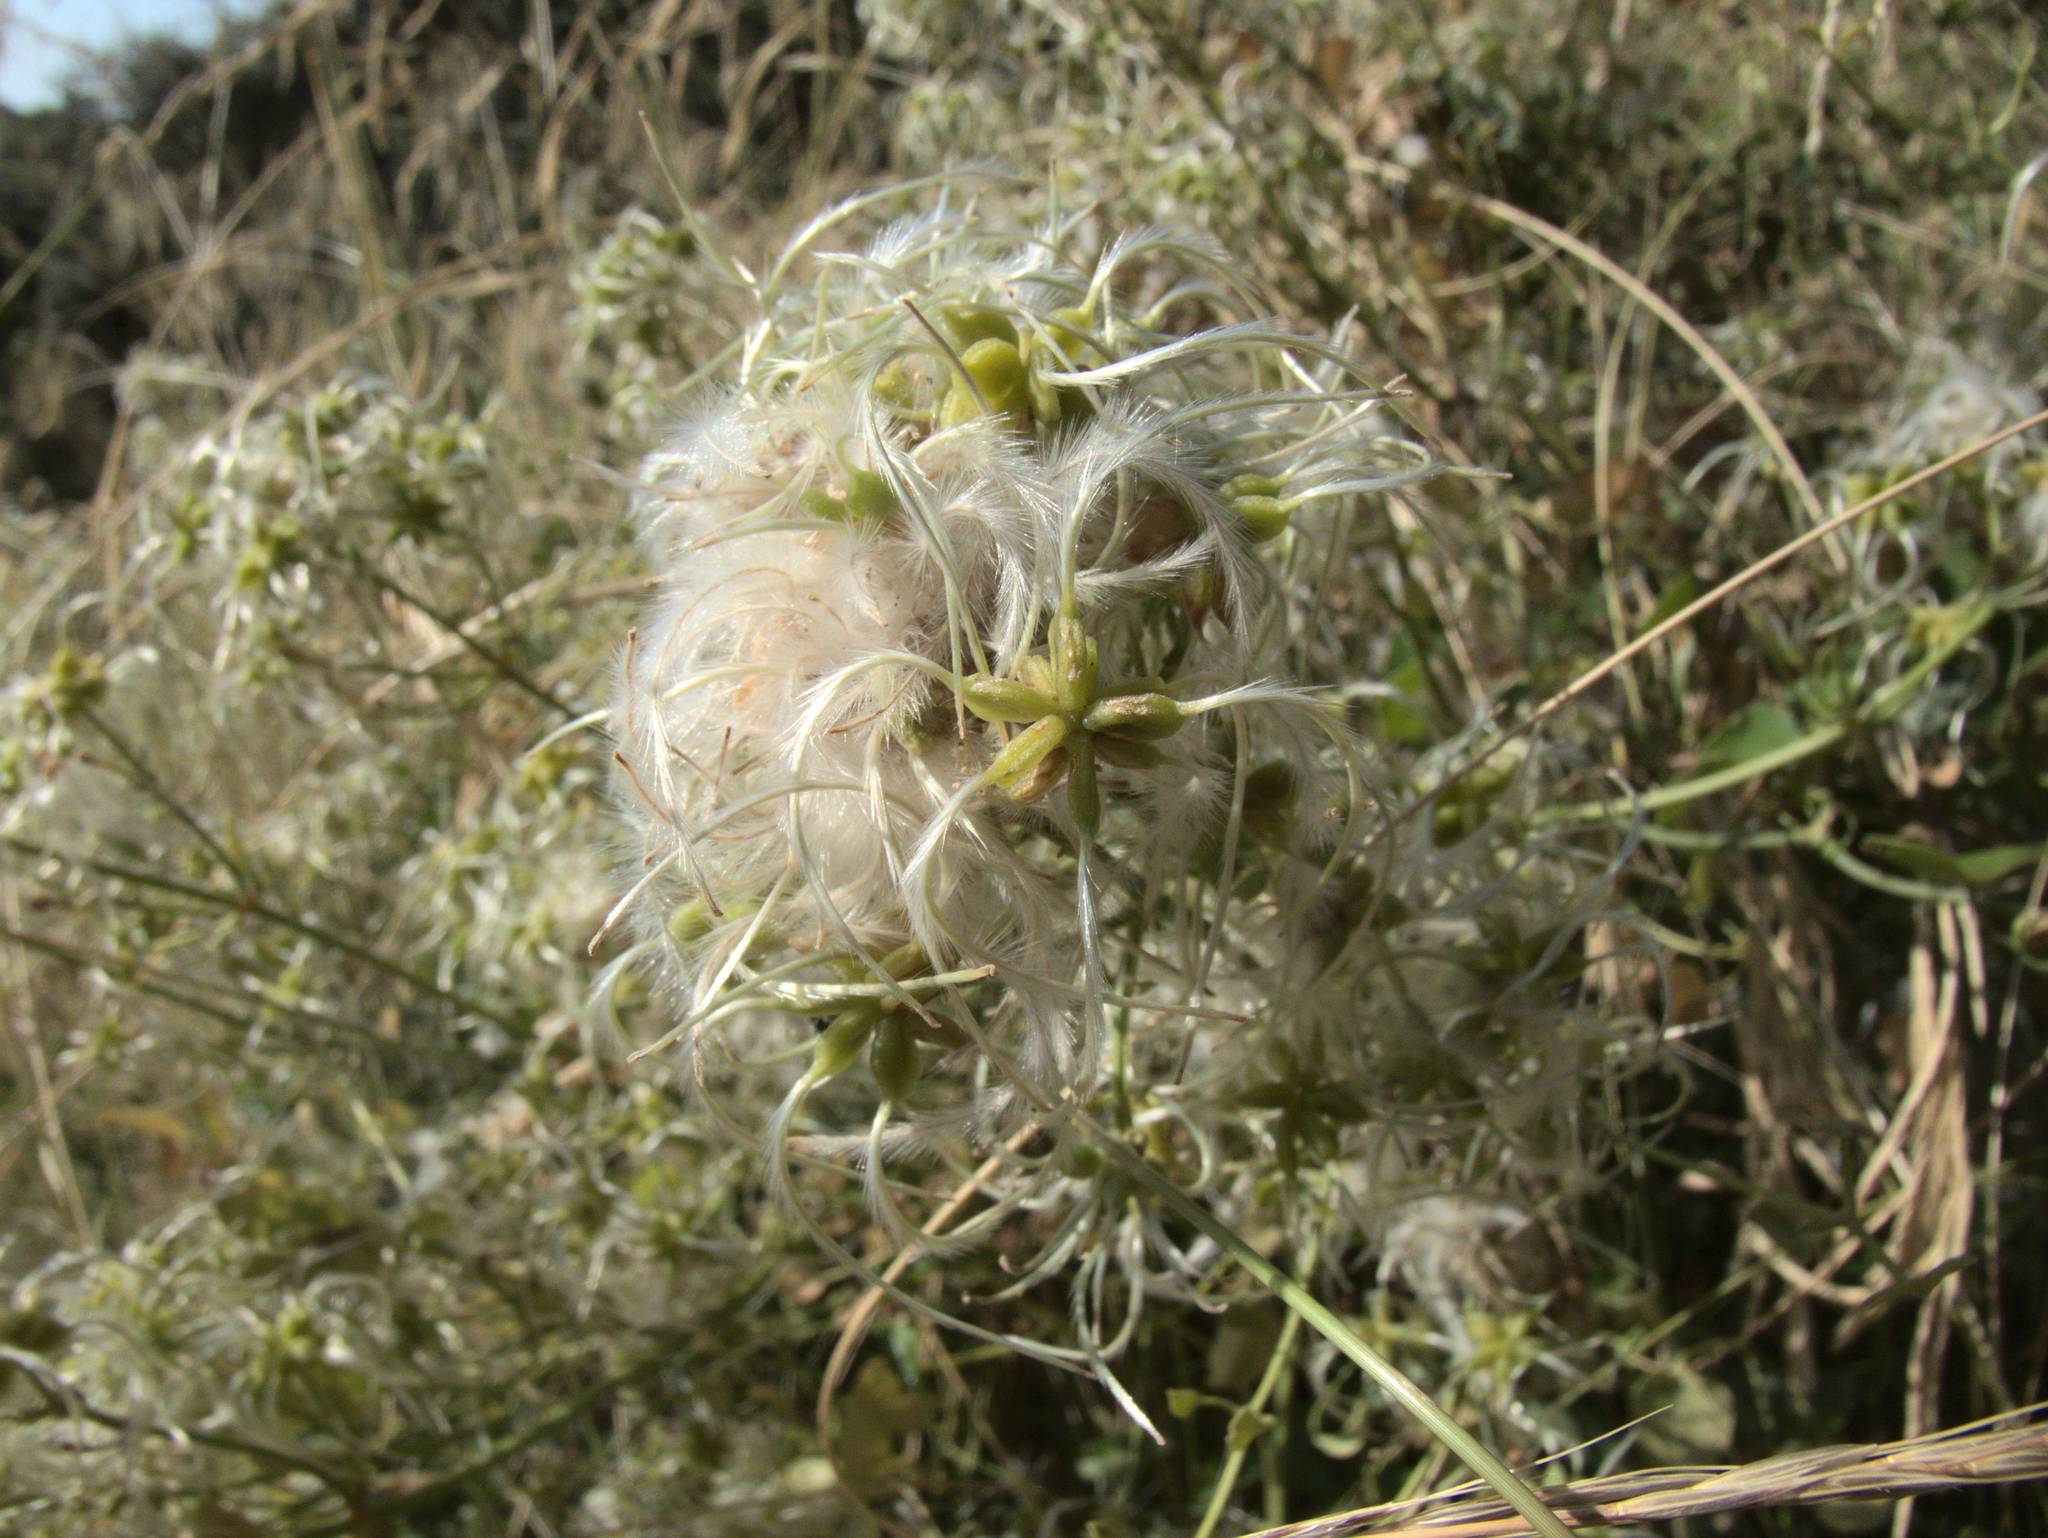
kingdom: Plantae
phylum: Tracheophyta
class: Magnoliopsida
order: Ranunculales
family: Ranunculaceae
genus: Clematis
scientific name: Clematis vitalba
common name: Evergreen clematis
